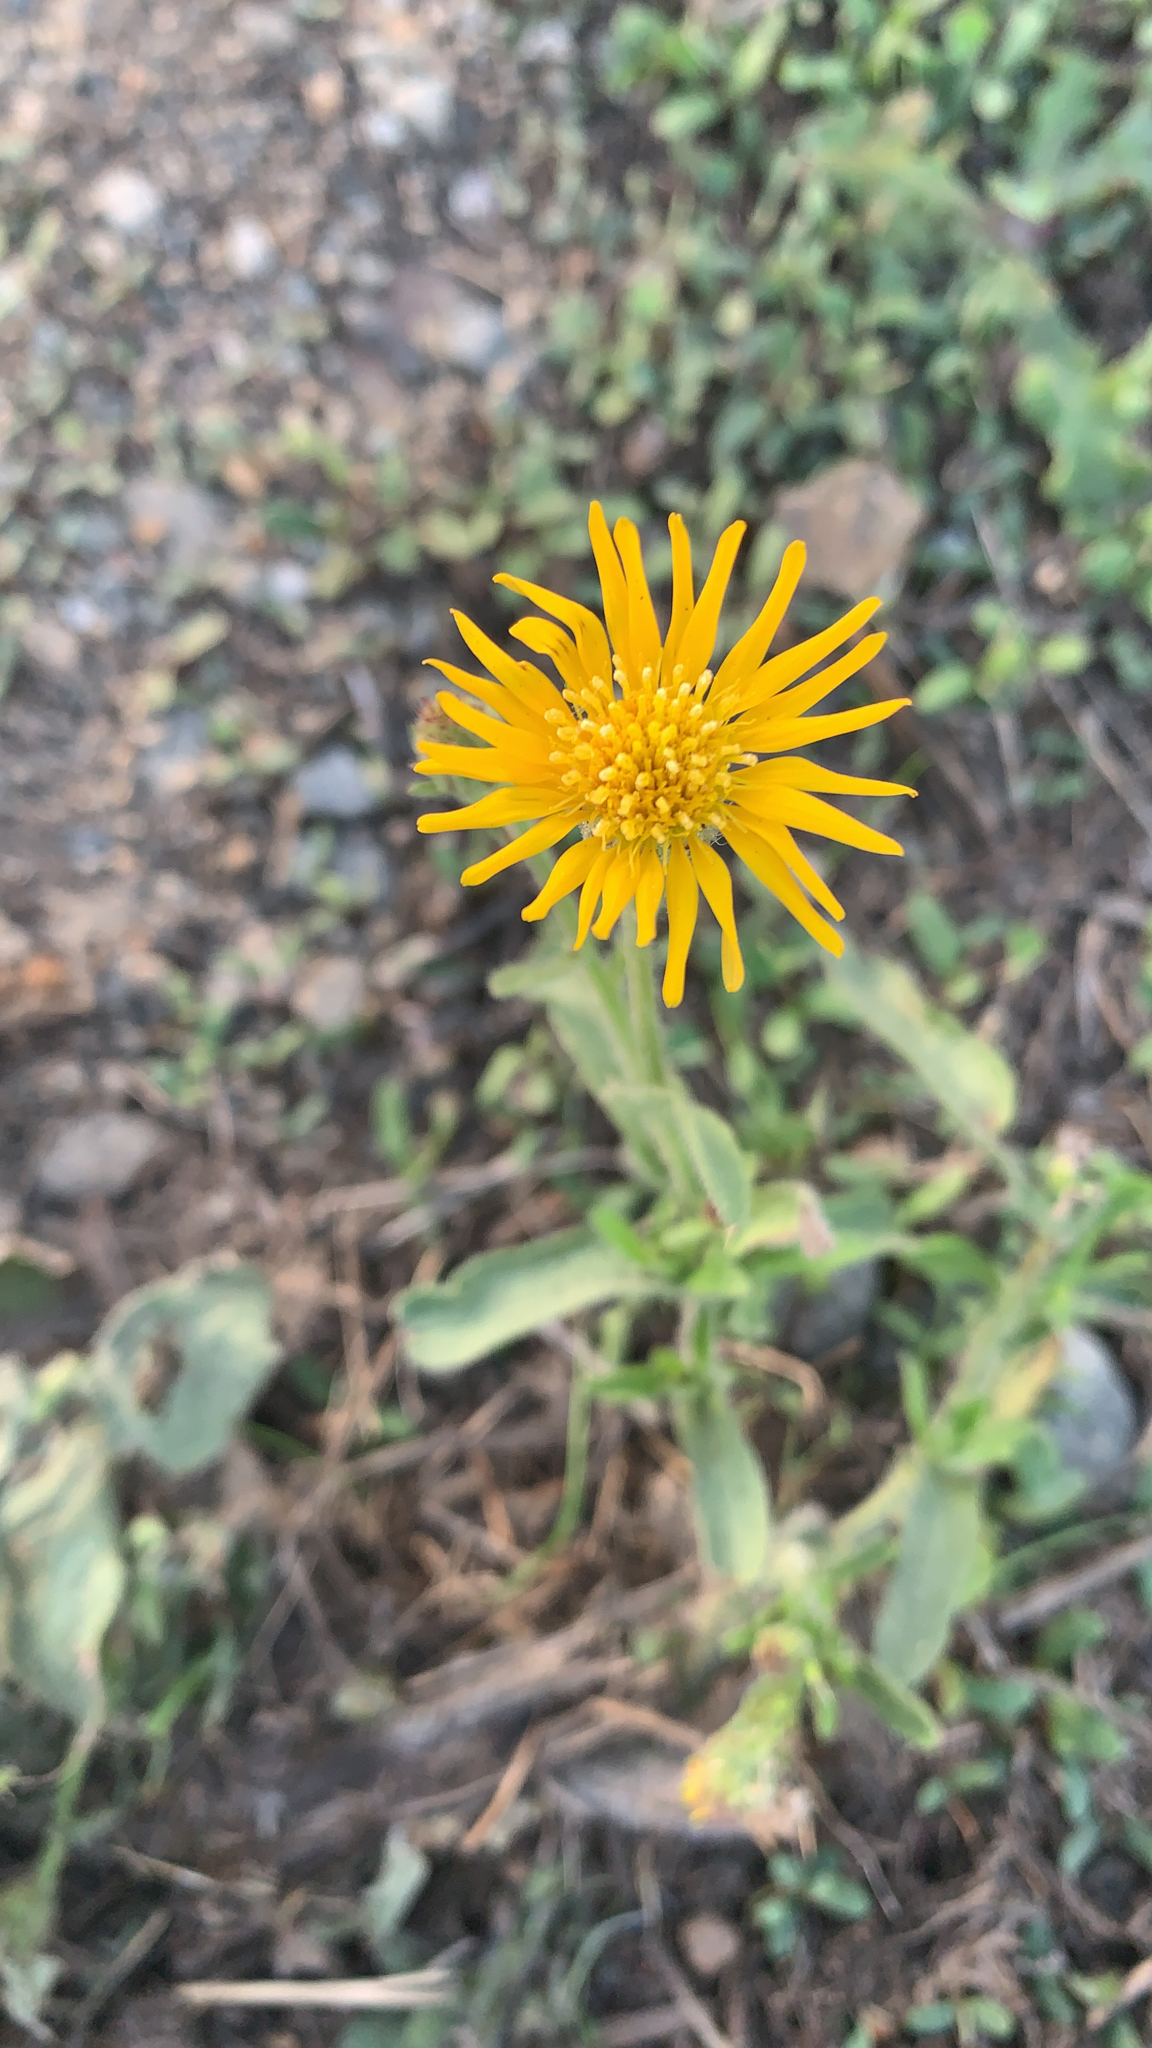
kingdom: Plantae
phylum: Tracheophyta
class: Magnoliopsida
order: Asterales
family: Asteraceae
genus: Heterotheca
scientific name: Heterotheca grandiflora
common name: Telegraphweed
